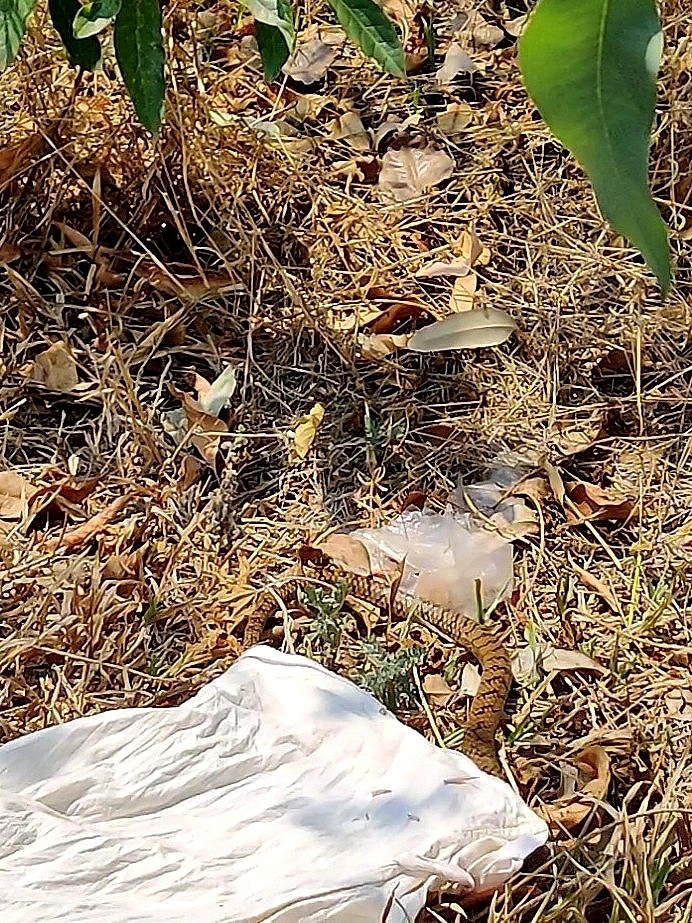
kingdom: Animalia
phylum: Chordata
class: Squamata
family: Colubridae
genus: Ptyas
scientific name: Ptyas mucosa
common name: Oriental ratsnake
